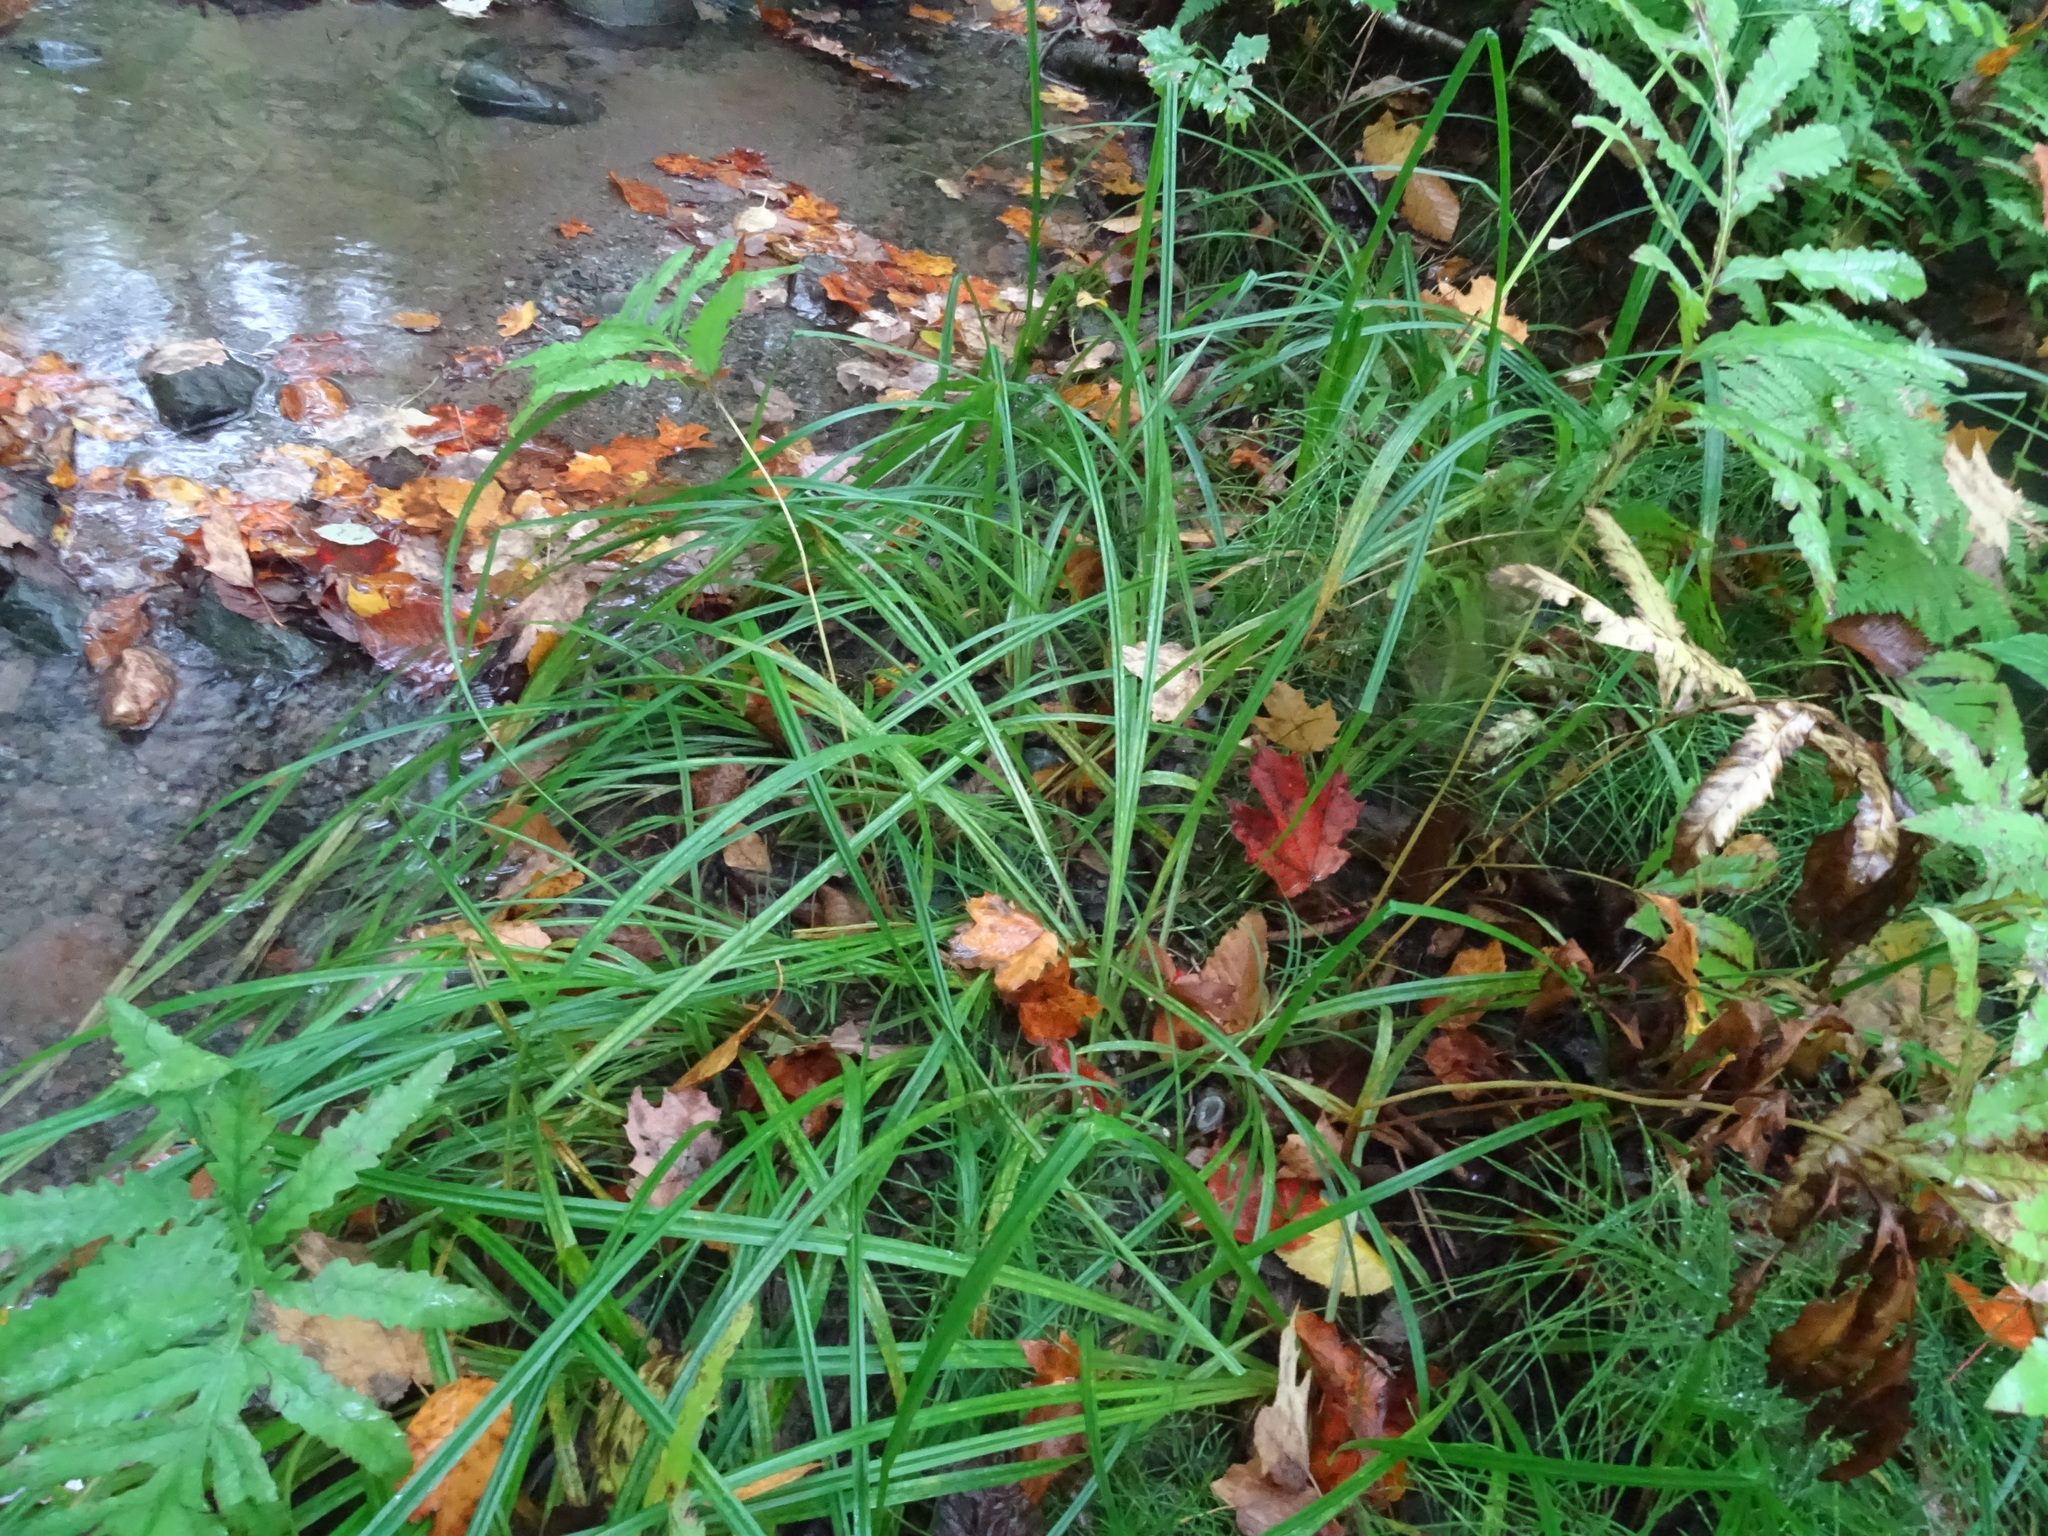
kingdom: Plantae
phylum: Tracheophyta
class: Liliopsida
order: Poales
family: Cyperaceae
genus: Carex
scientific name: Carex scabrata
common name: Eastern rough sedge
